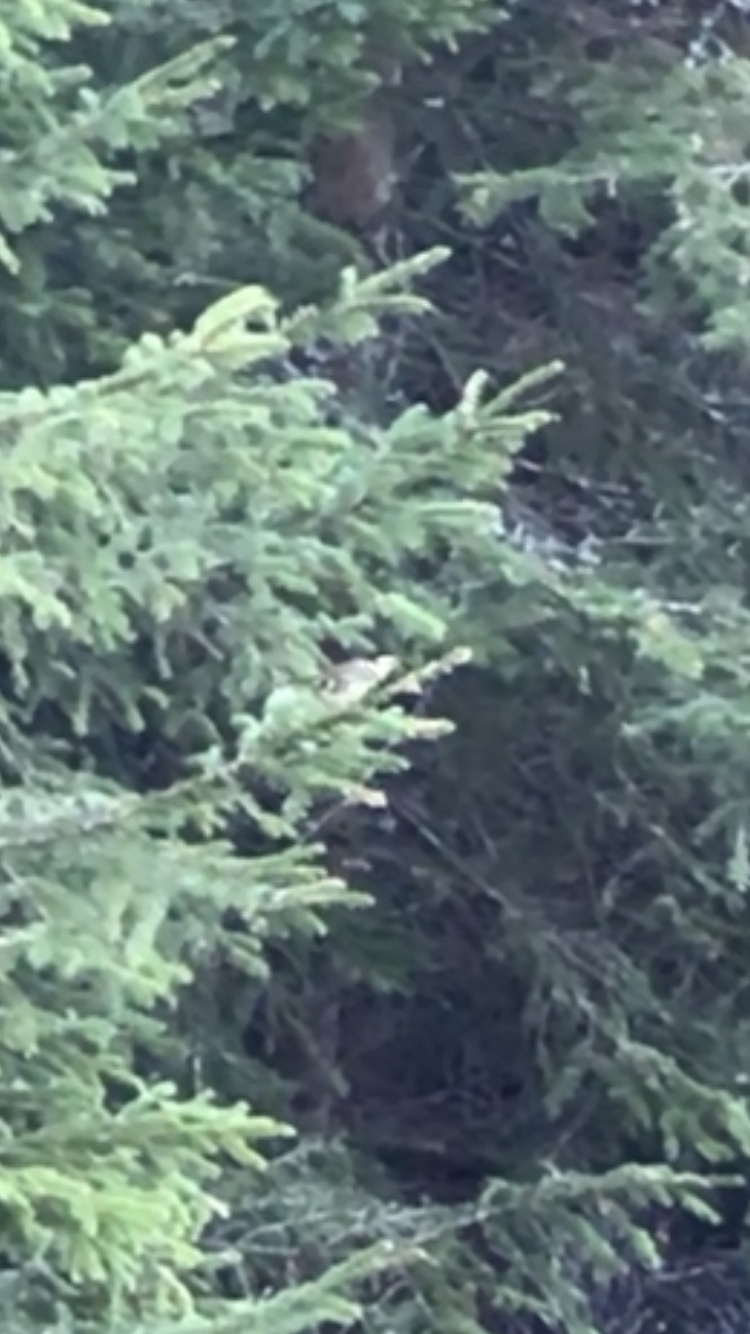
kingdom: Animalia
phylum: Chordata
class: Aves
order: Passeriformes
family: Regulidae
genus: Regulus
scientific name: Regulus regulus
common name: Goldcrest
